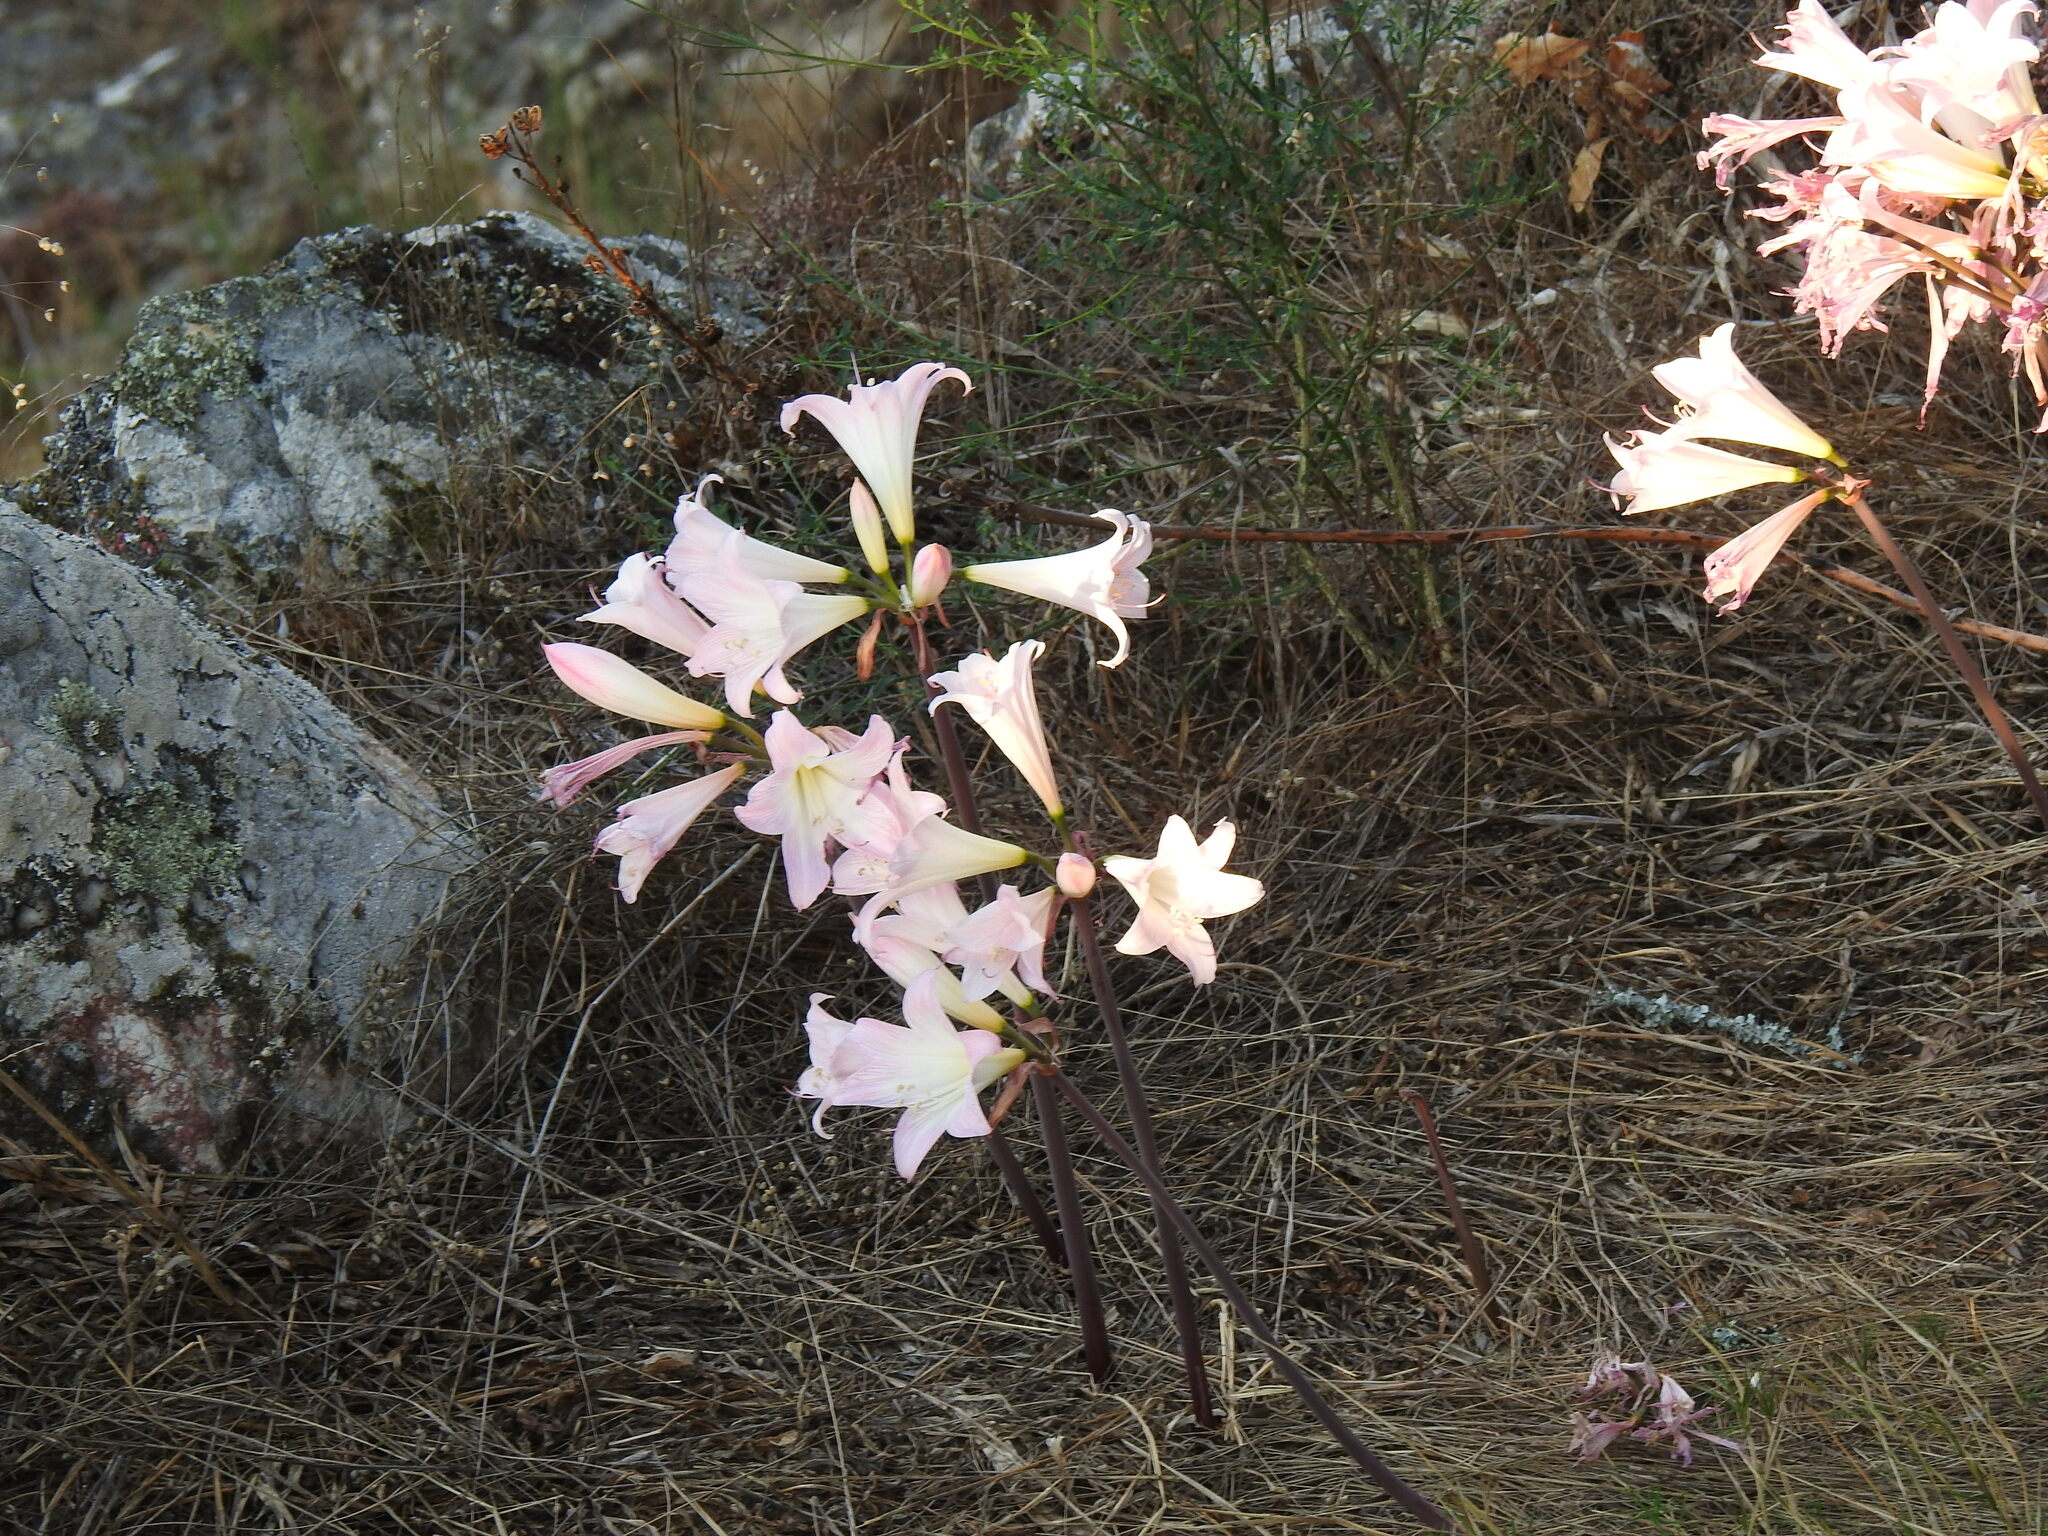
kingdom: Plantae
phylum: Tracheophyta
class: Liliopsida
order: Asparagales
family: Amaryllidaceae
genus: Amaryllis
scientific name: Amaryllis belladonna
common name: Jersey lily
